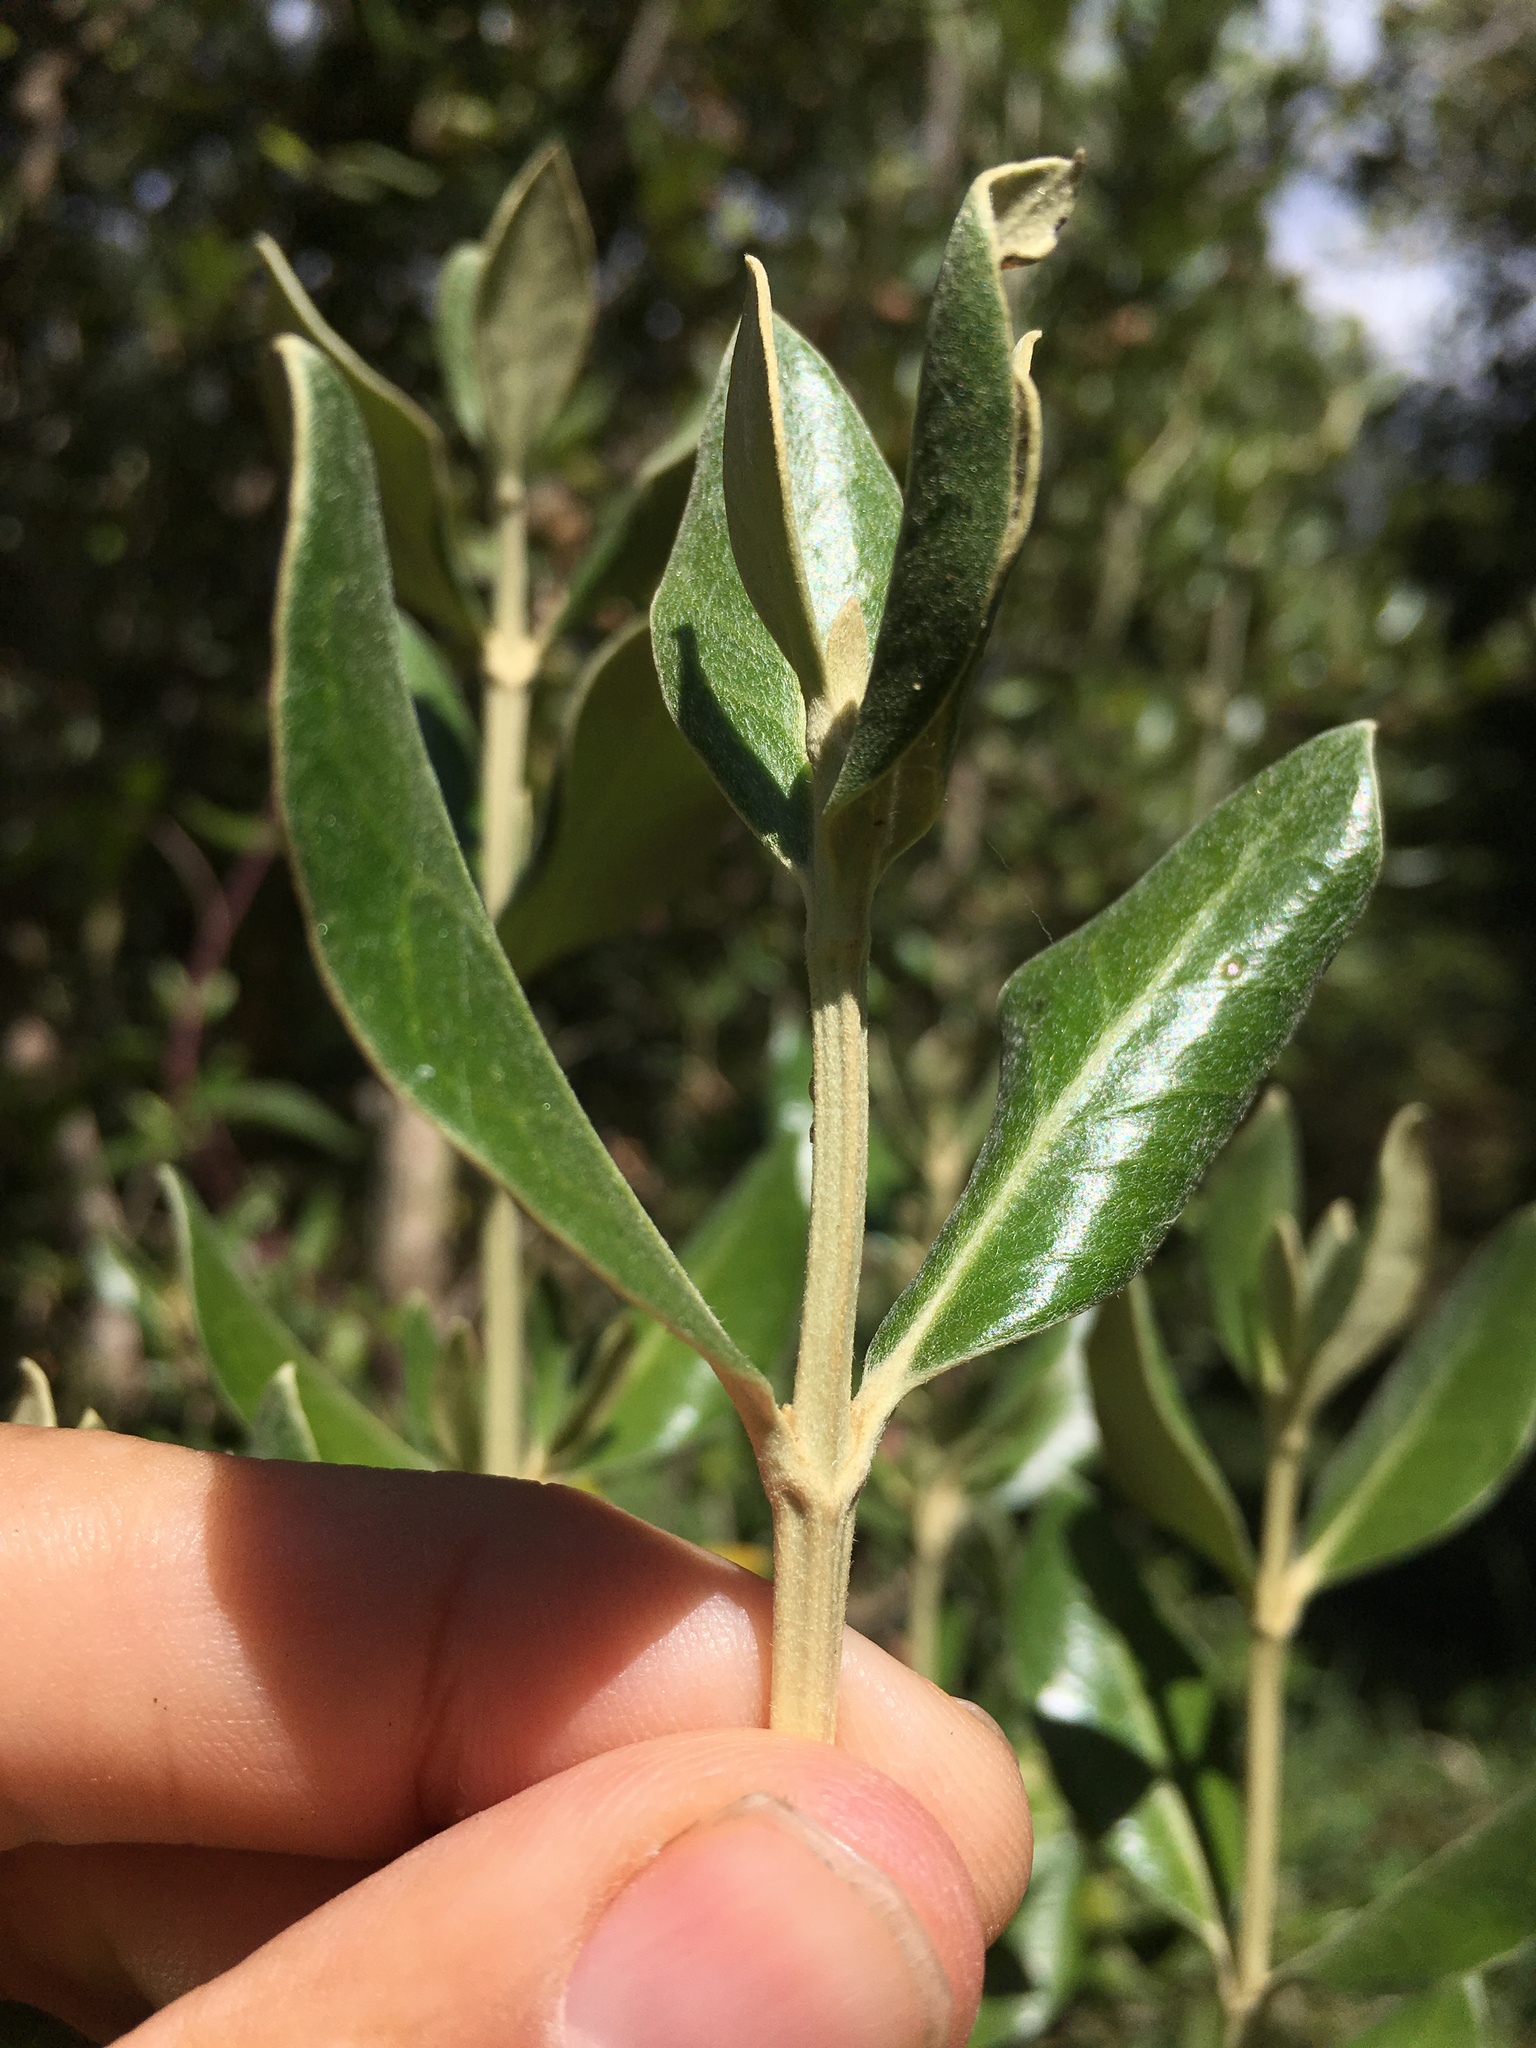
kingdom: Plantae
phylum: Tracheophyta
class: Magnoliopsida
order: Asterales
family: Asteraceae
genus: Olearia
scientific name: Olearia traversiorum
